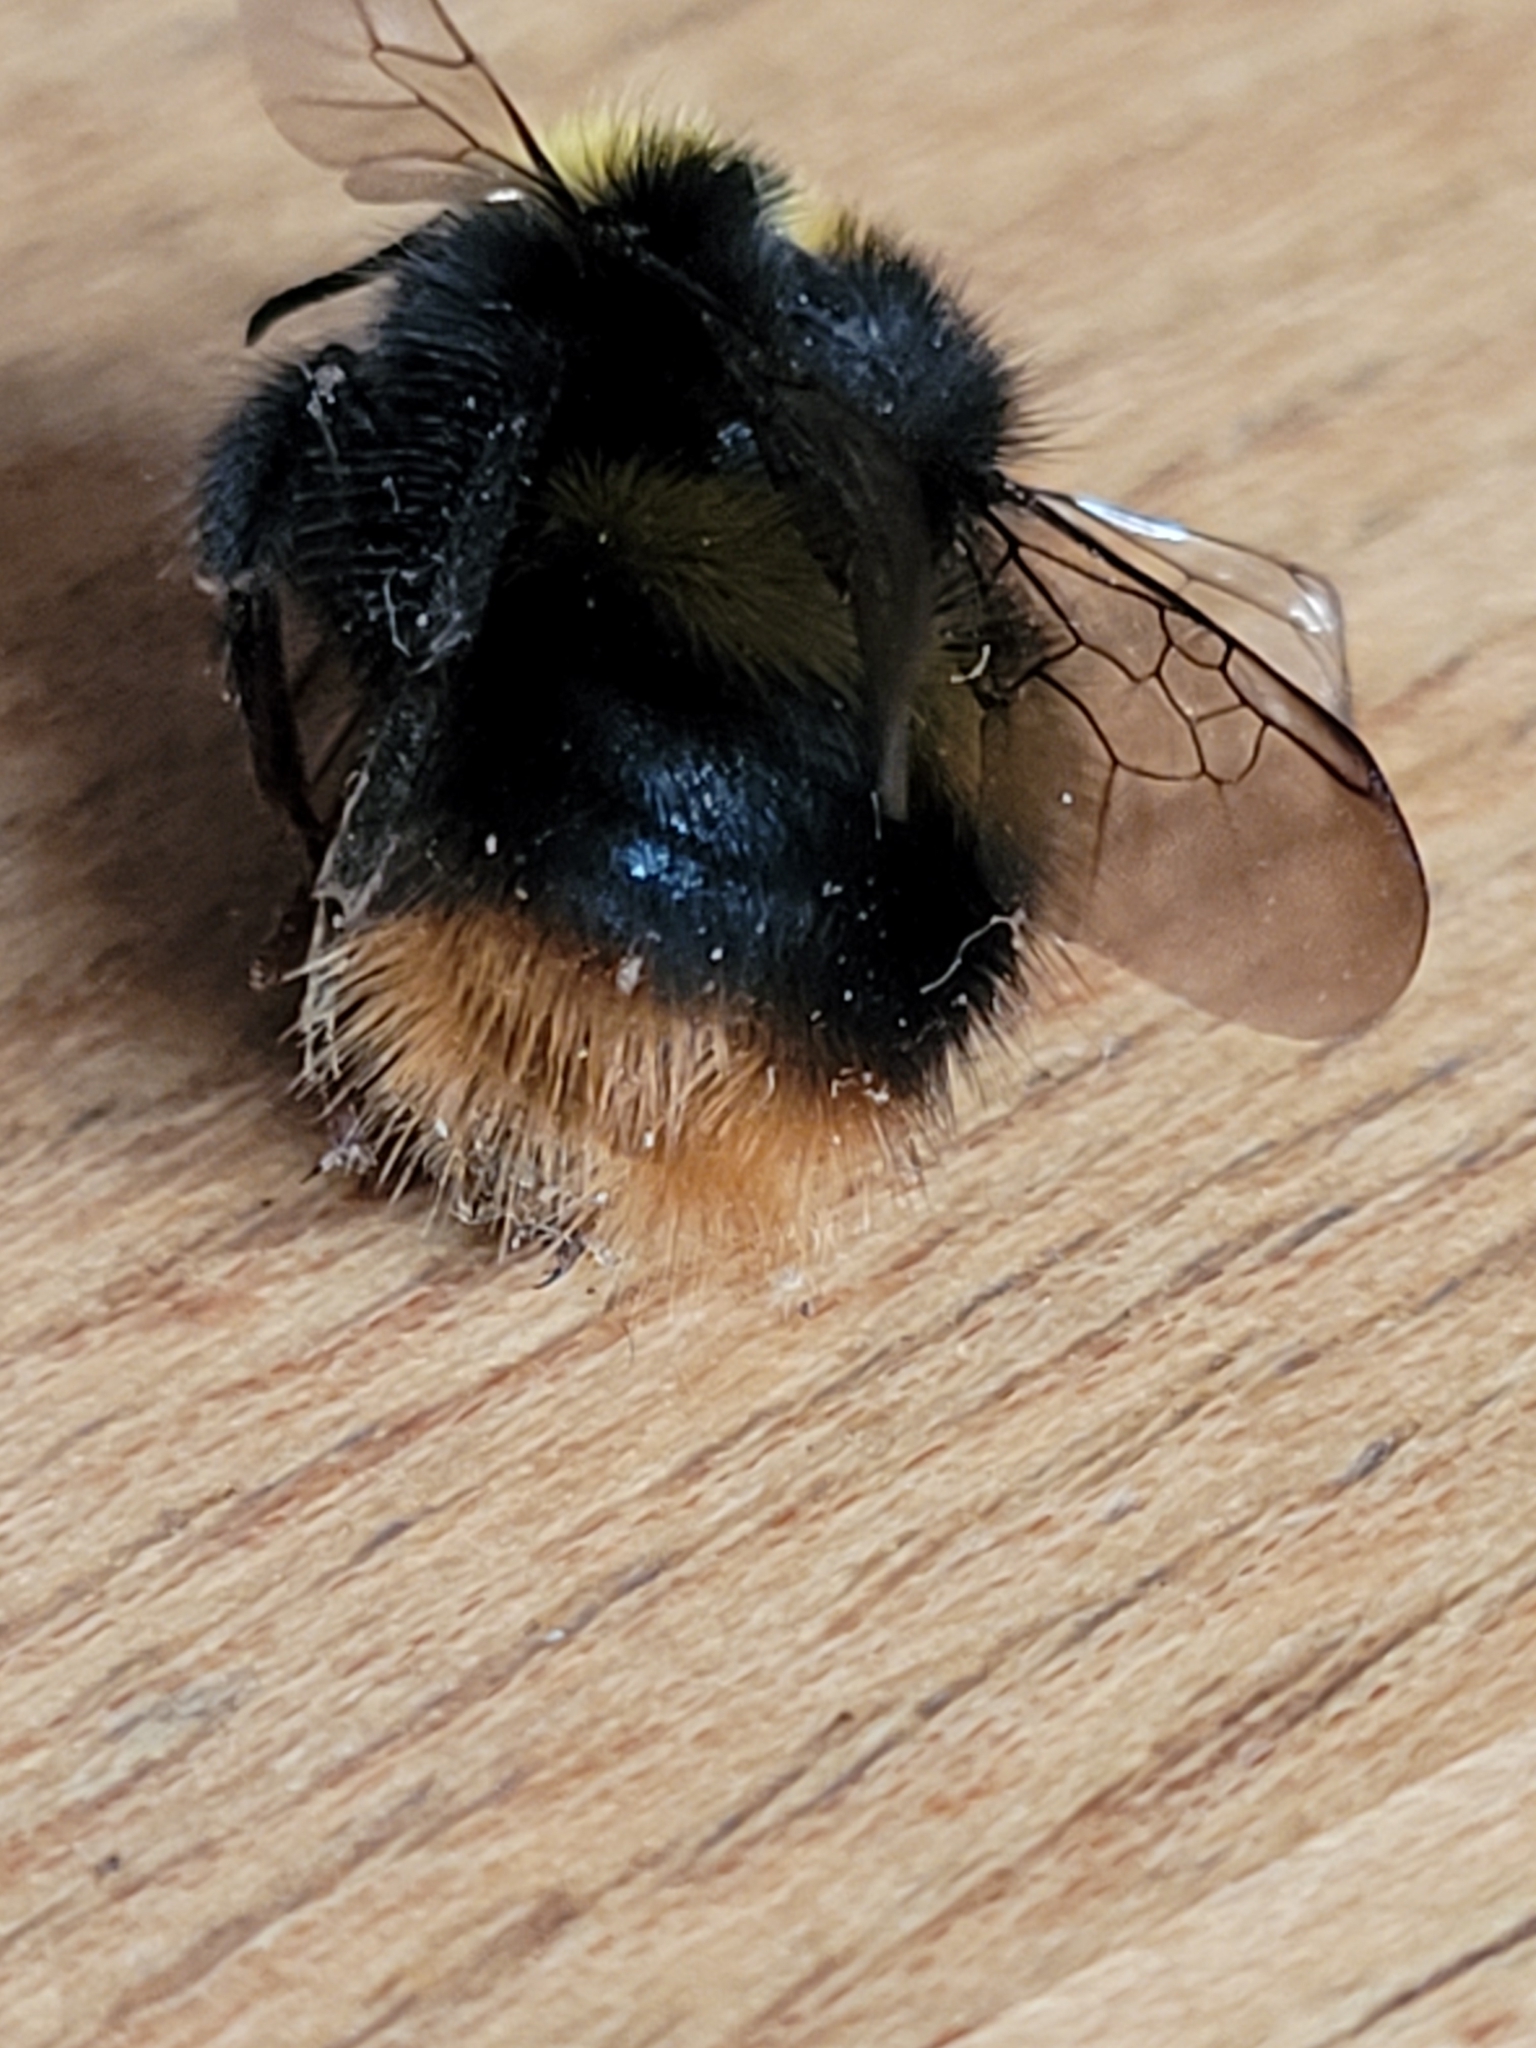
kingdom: Animalia
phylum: Arthropoda
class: Insecta
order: Hymenoptera
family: Apidae
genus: Bombus
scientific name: Bombus pratorum
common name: Early humble-bee
